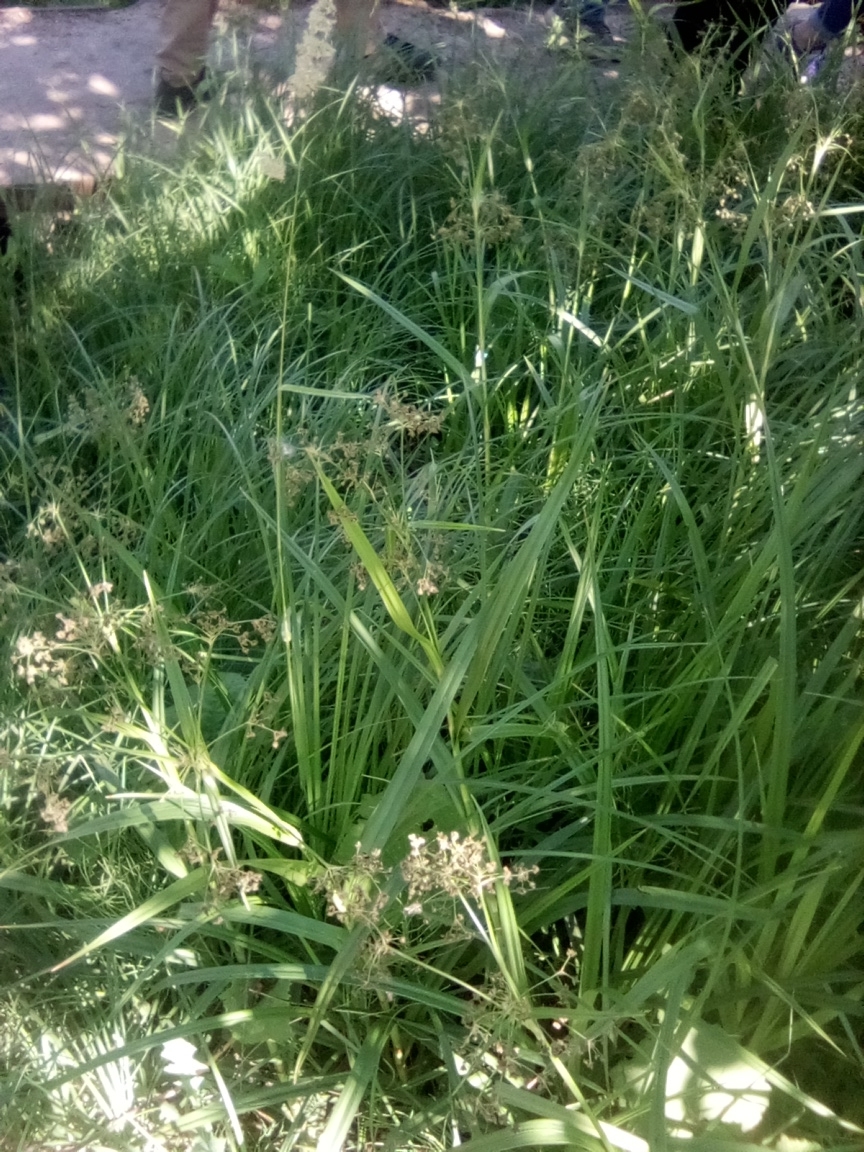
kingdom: Plantae
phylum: Tracheophyta
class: Liliopsida
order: Poales
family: Cyperaceae
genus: Scirpus
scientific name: Scirpus sylvaticus
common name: Wood club-rush
